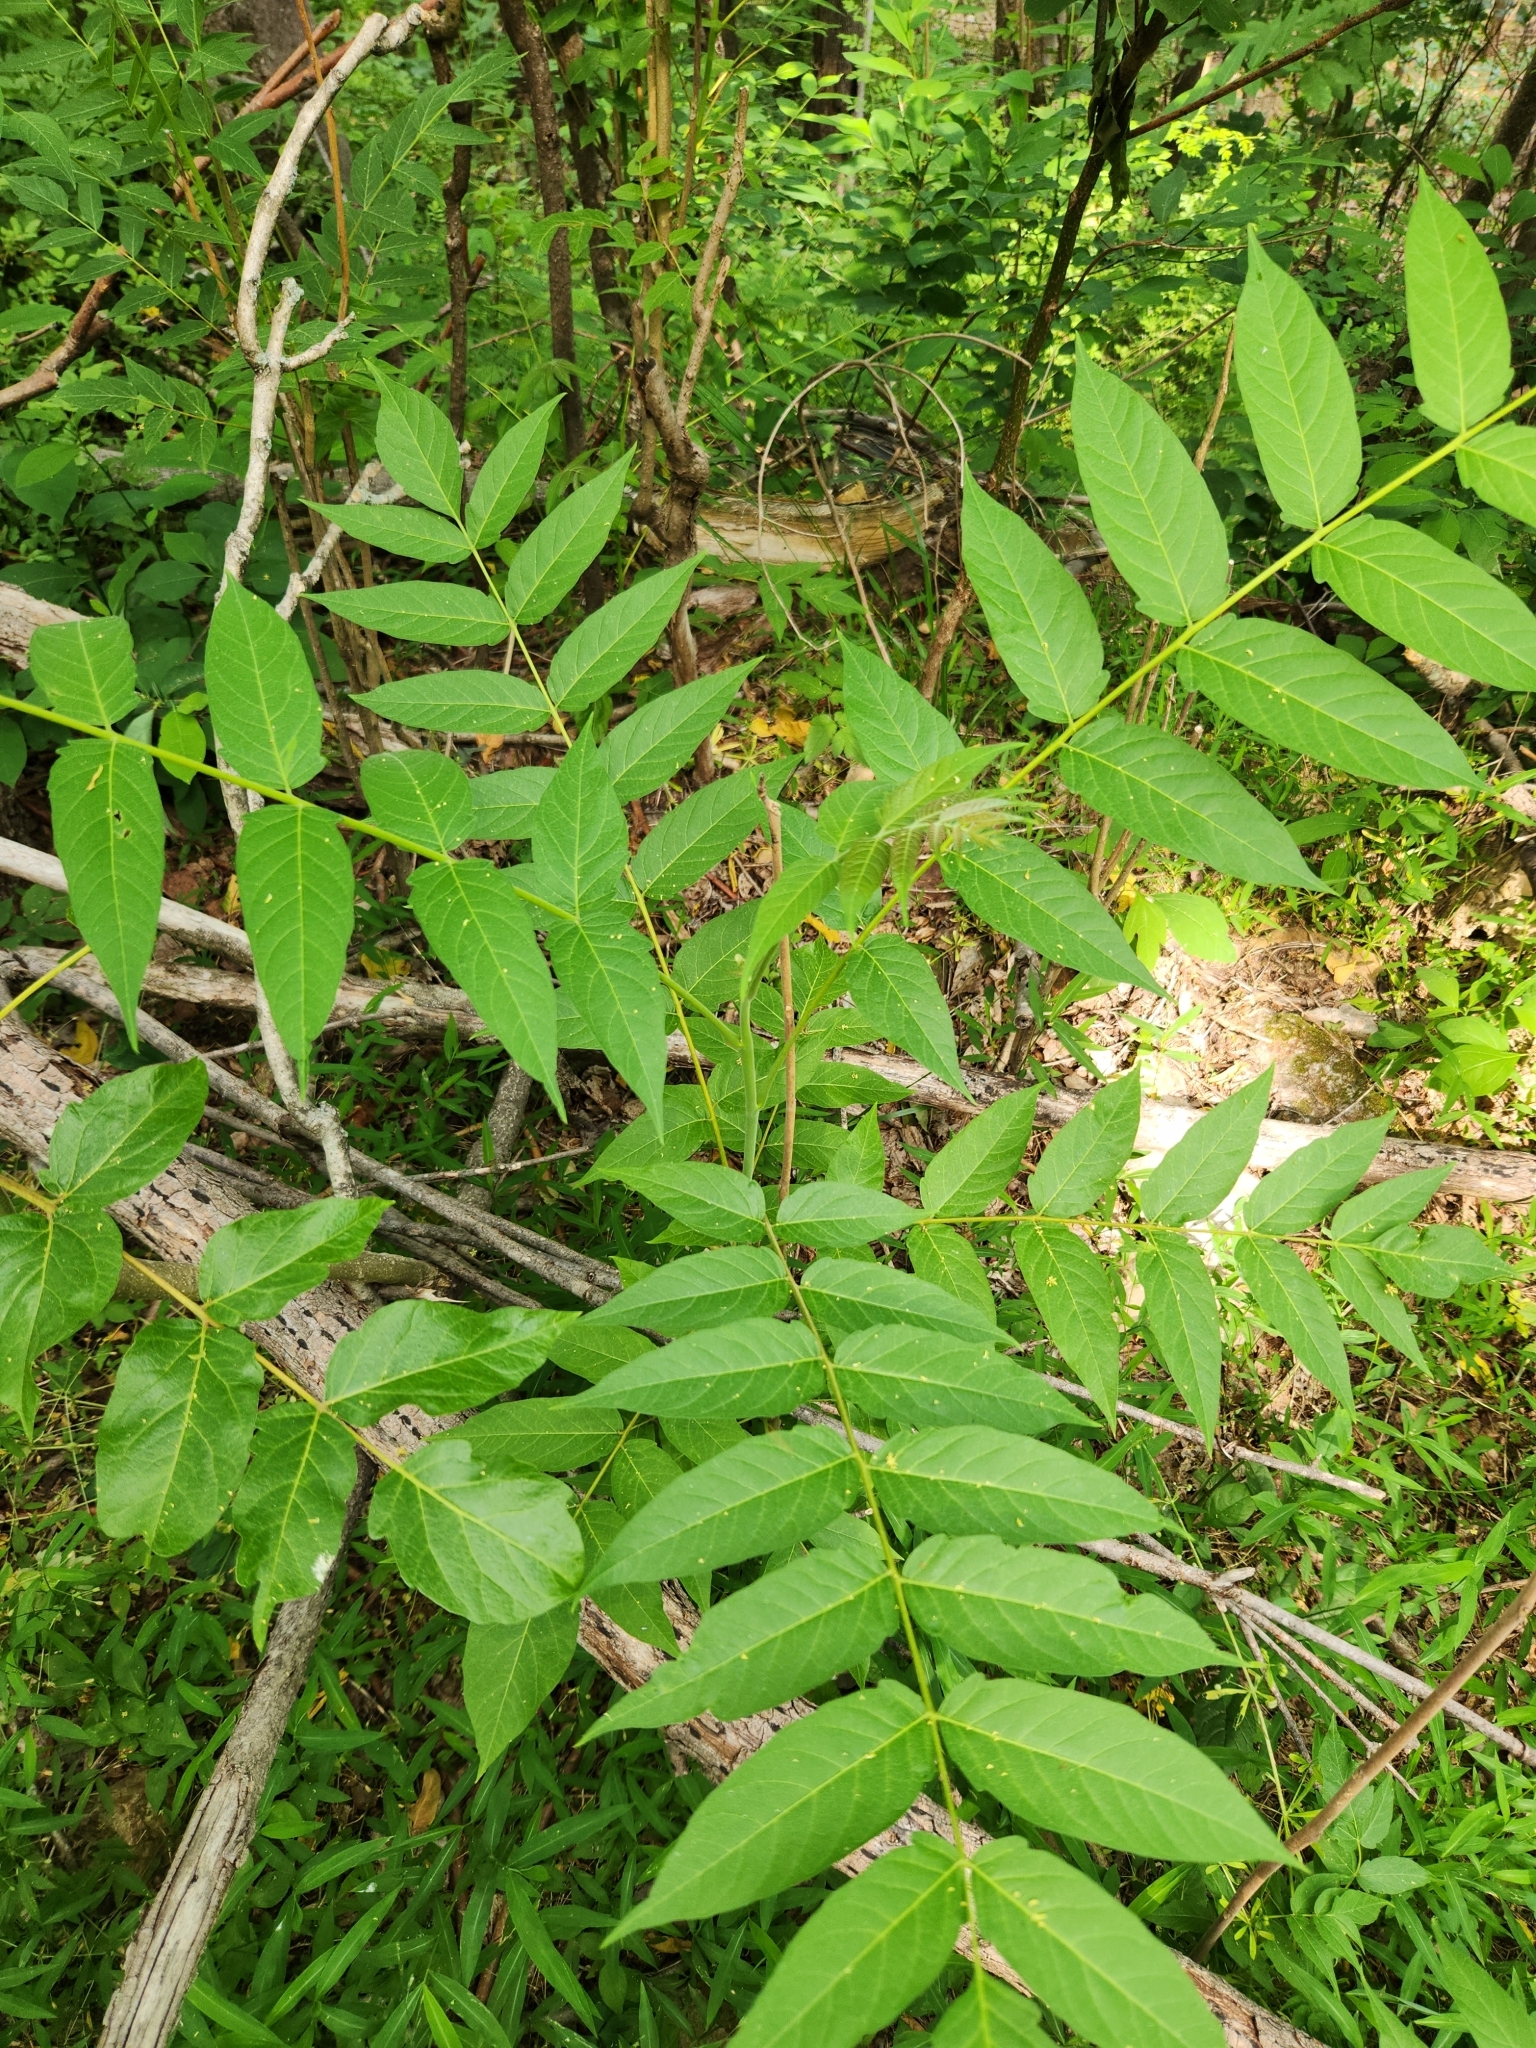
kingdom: Plantae
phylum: Tracheophyta
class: Magnoliopsida
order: Sapindales
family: Simaroubaceae
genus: Ailanthus
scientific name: Ailanthus altissima
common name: Tree-of-heaven
